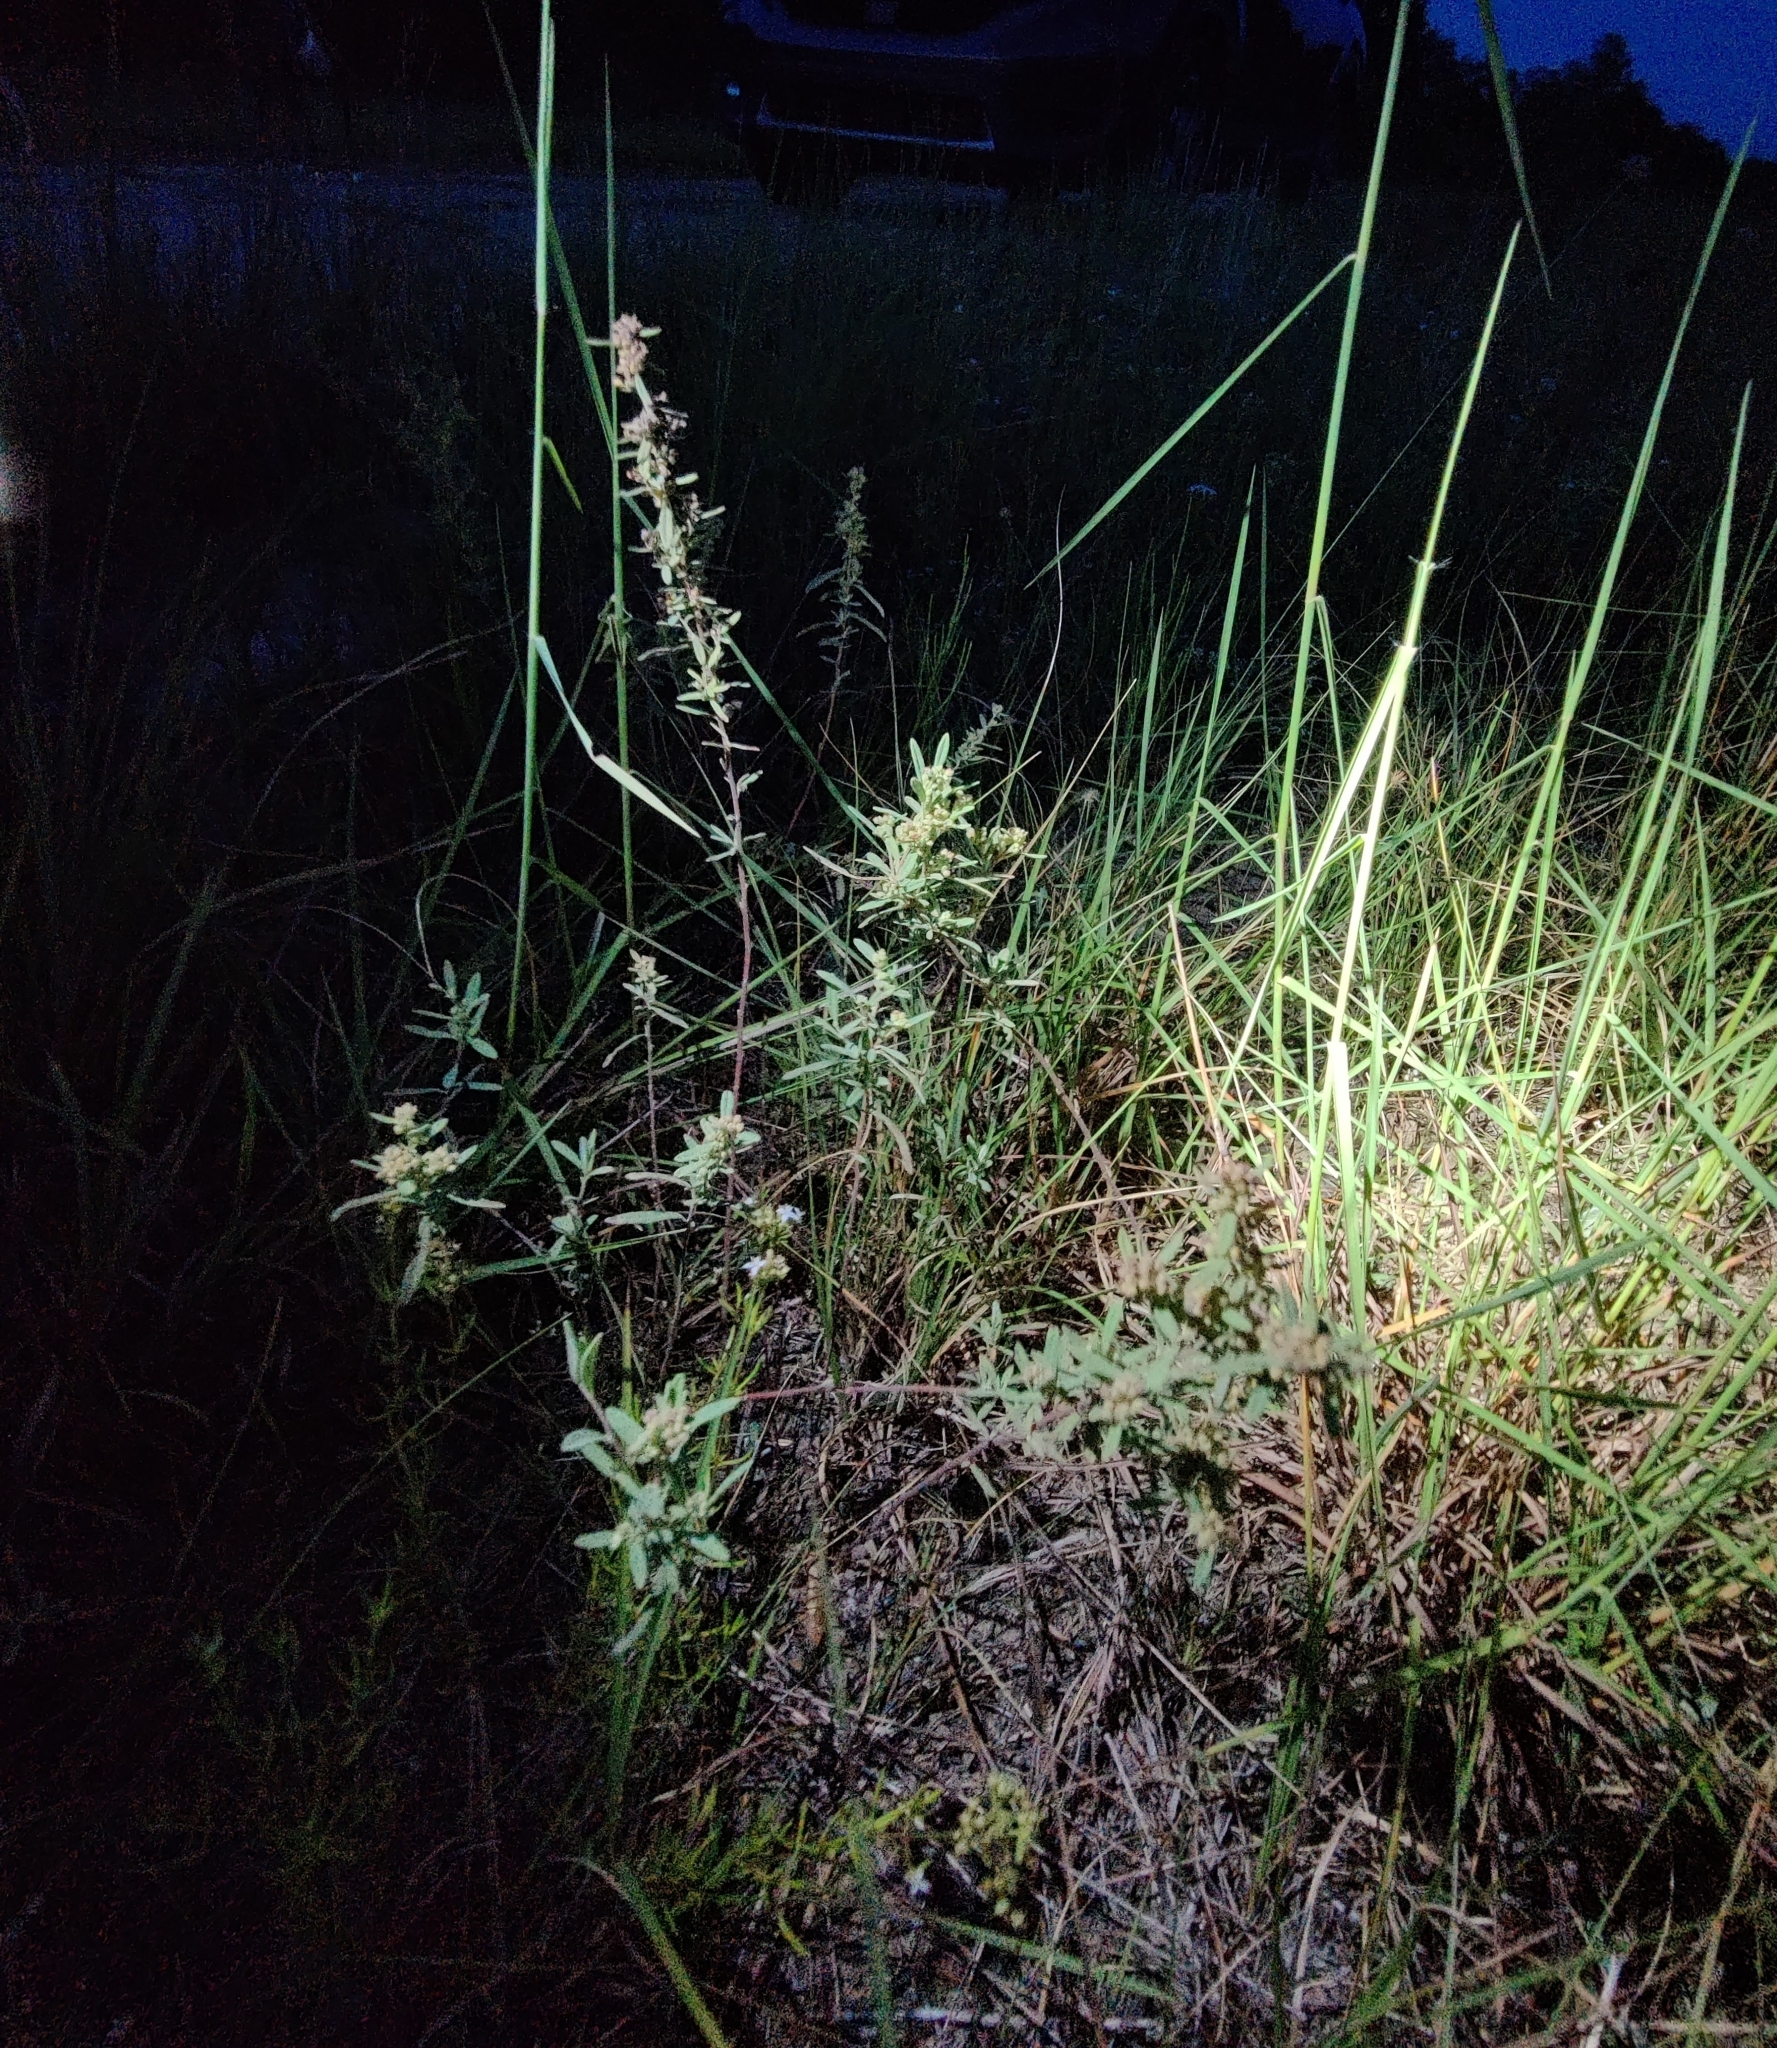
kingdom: Plantae
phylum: Tracheophyta
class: Magnoliopsida
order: Malvales
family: Cistaceae
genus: Crocanthemum
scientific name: Crocanthemum rosmarinifolium
